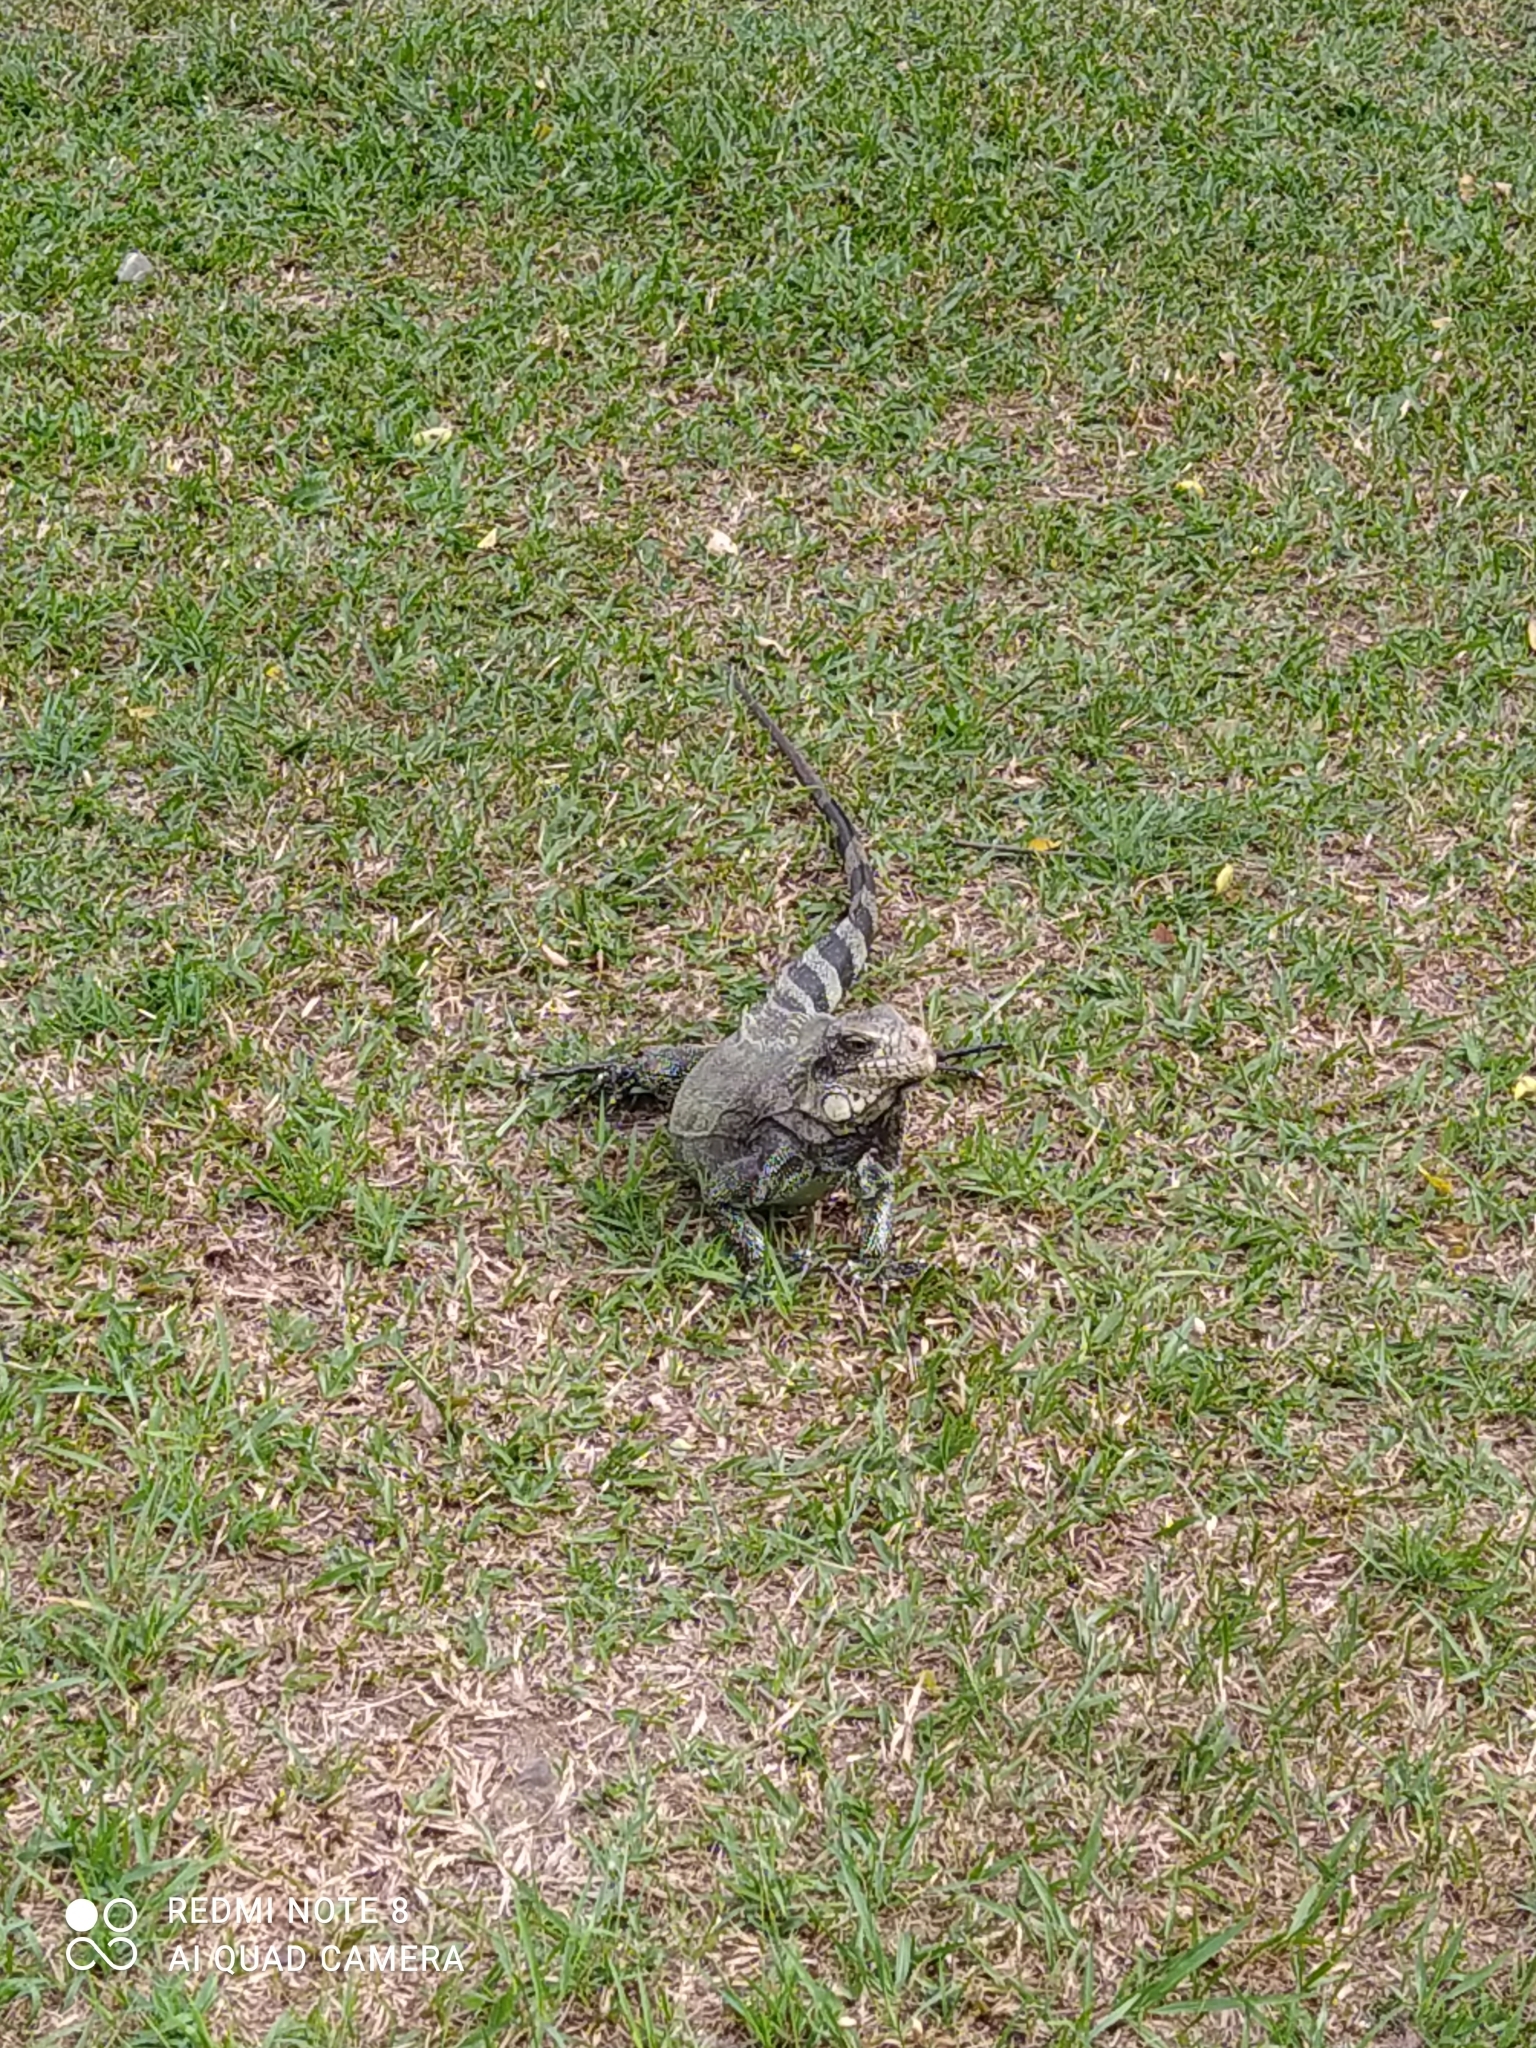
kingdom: Animalia
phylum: Chordata
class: Squamata
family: Iguanidae
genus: Iguana
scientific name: Iguana iguana
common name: Green iguana
